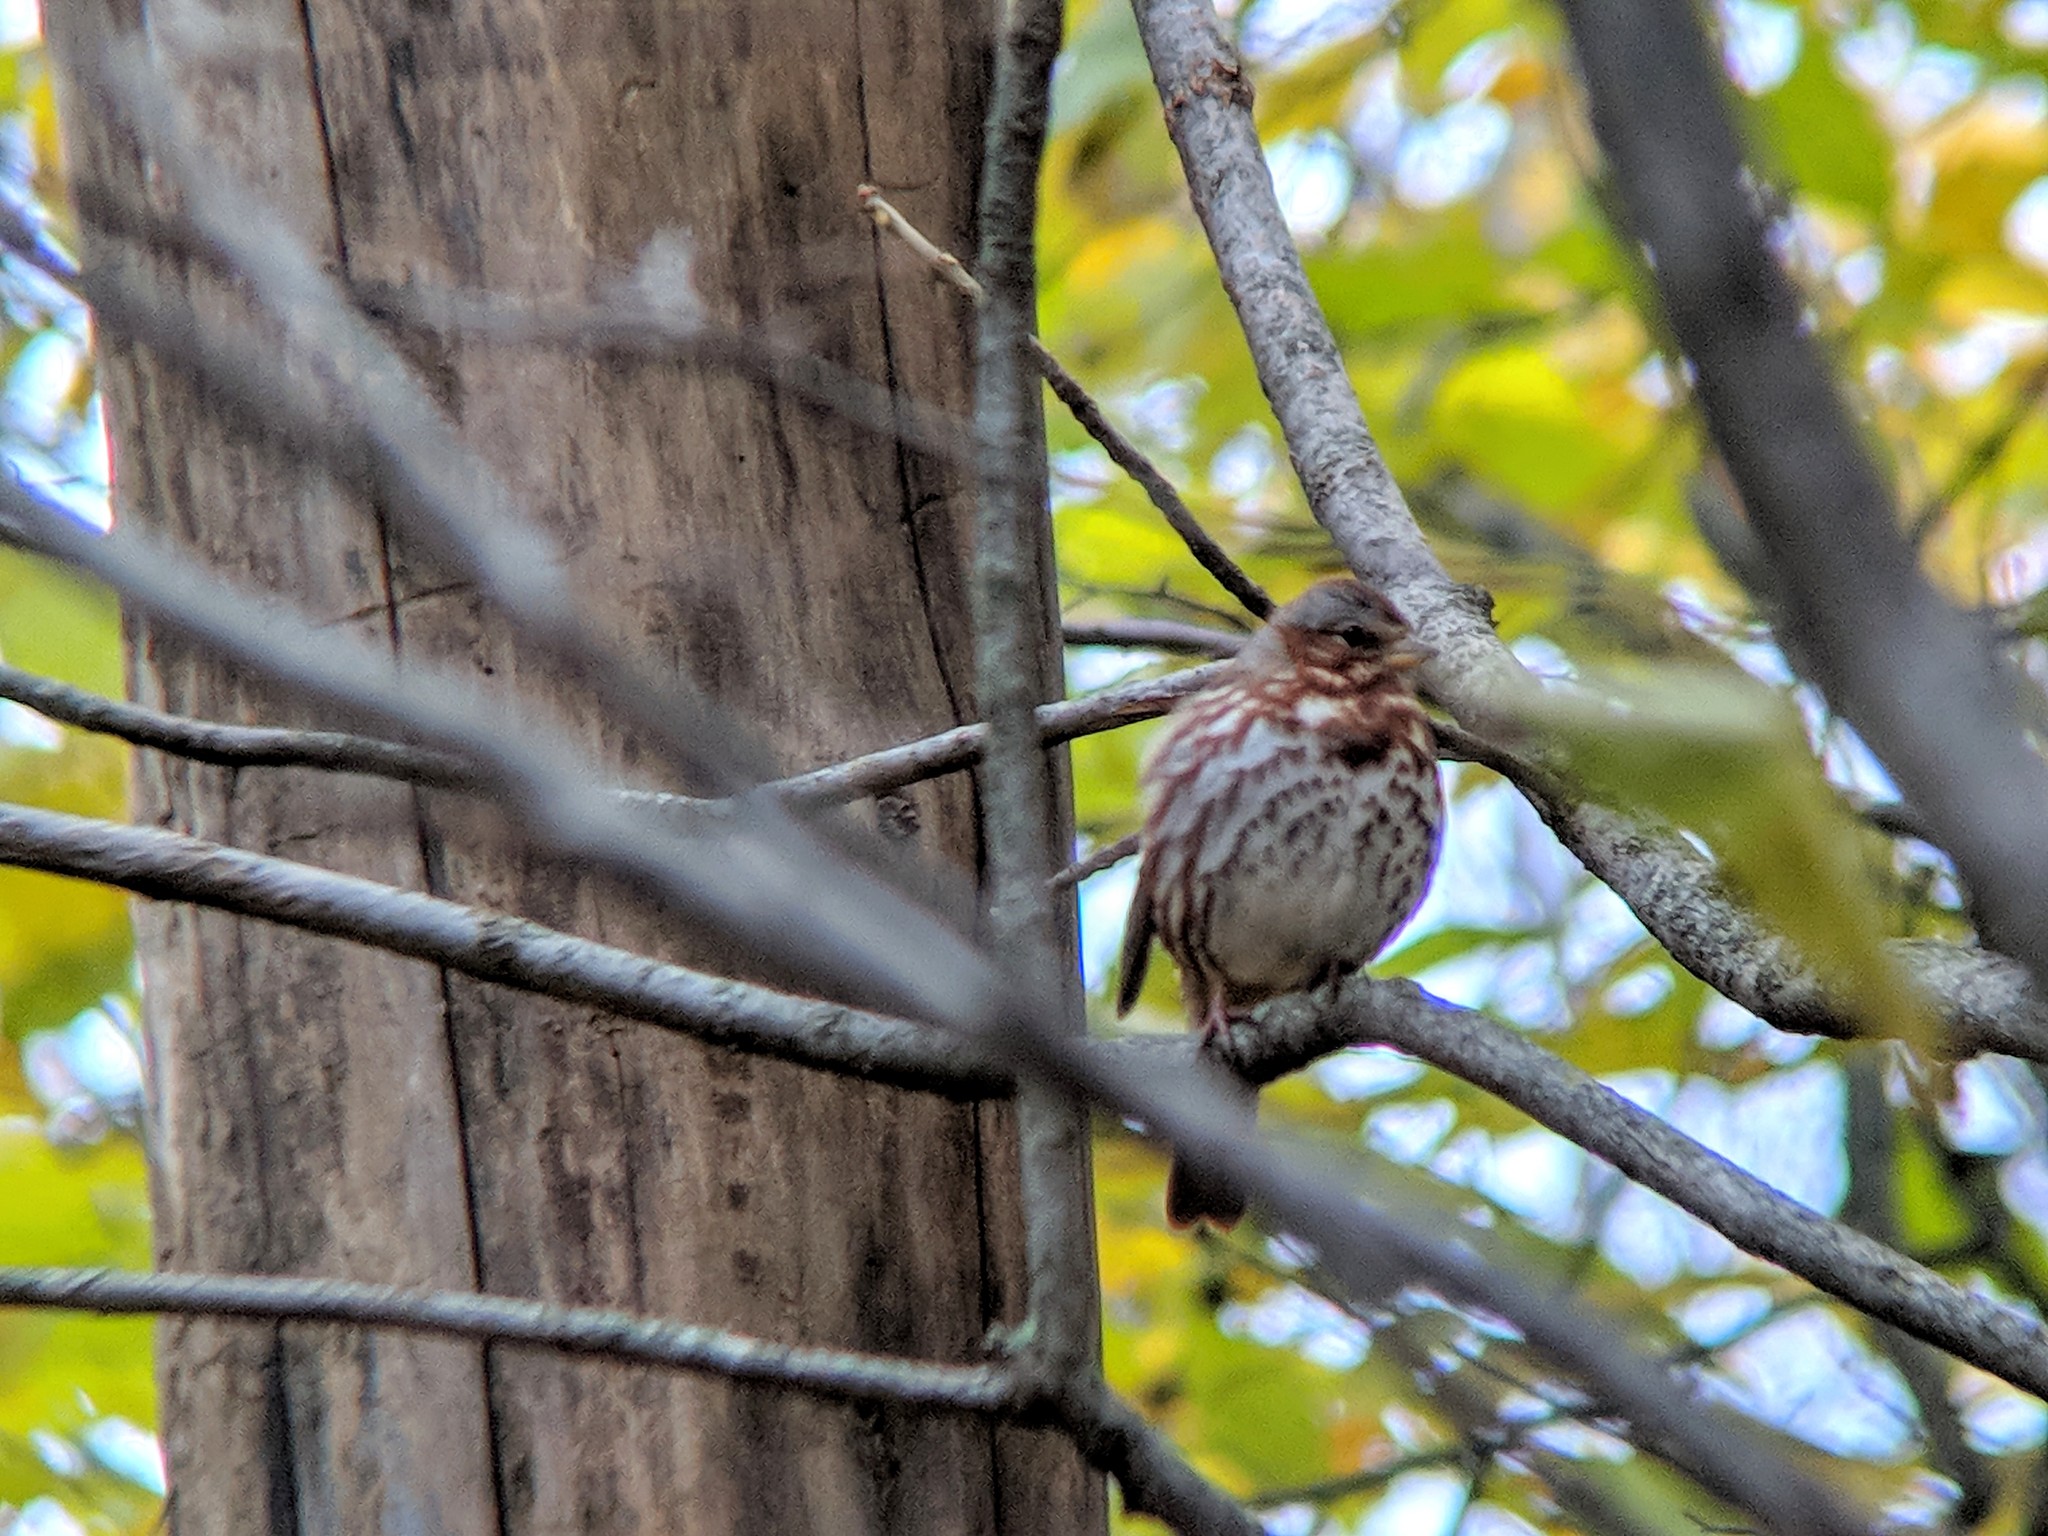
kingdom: Animalia
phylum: Chordata
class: Aves
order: Passeriformes
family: Passerellidae
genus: Passerella
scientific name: Passerella iliaca
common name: Fox sparrow
